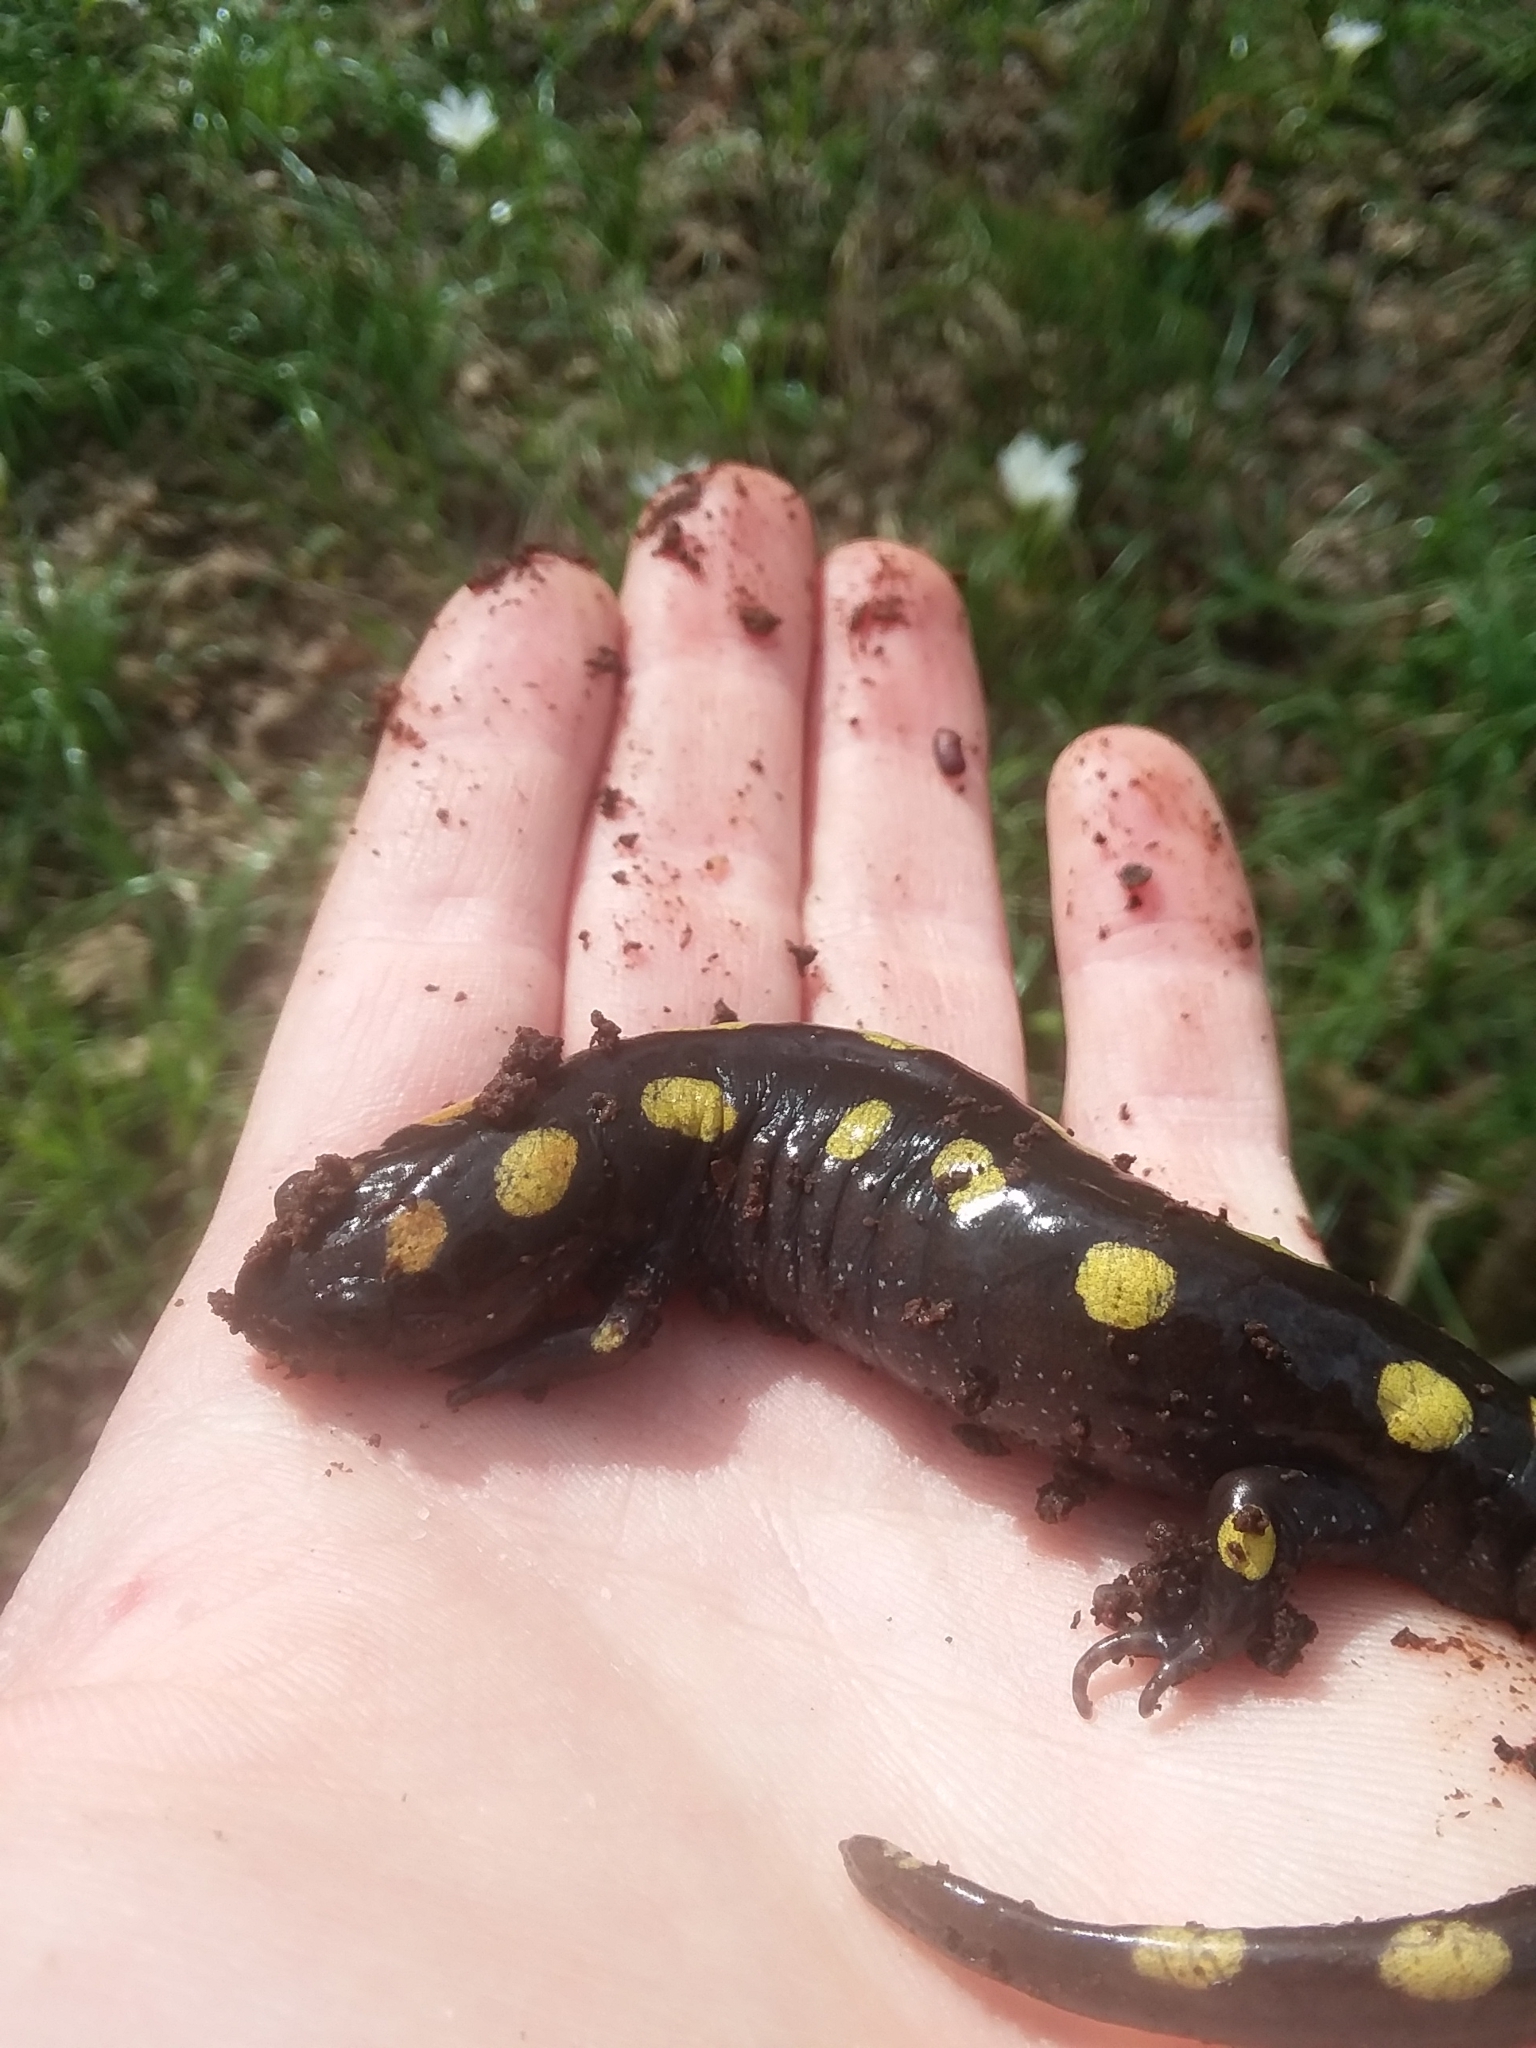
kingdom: Animalia
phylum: Chordata
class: Amphibia
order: Caudata
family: Ambystomatidae
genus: Ambystoma
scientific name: Ambystoma maculatum
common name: Spotted salamander
